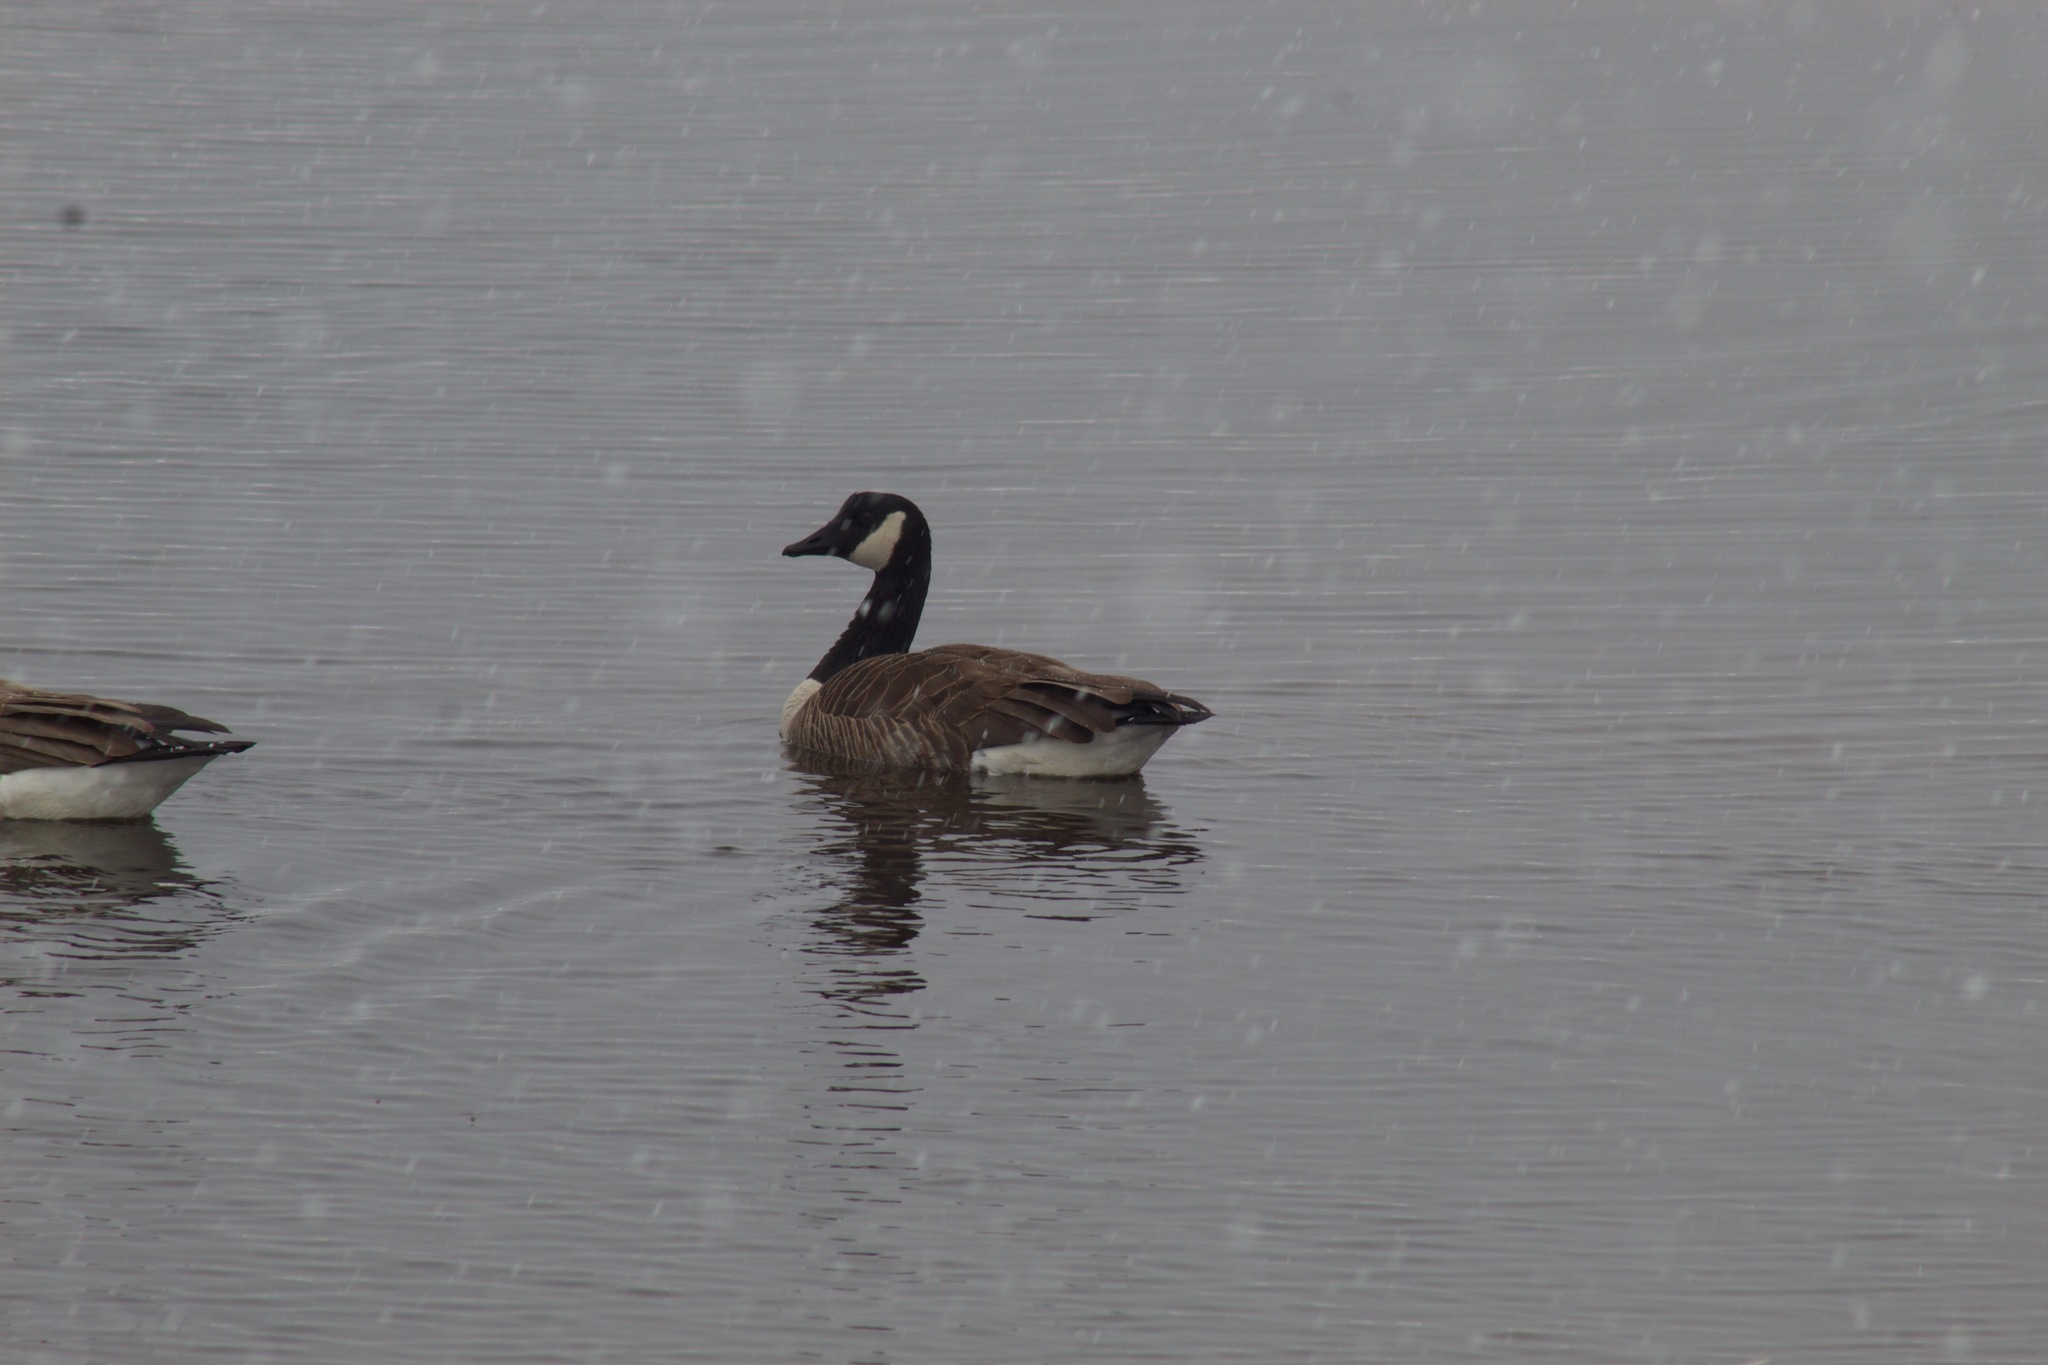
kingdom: Animalia
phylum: Chordata
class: Aves
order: Anseriformes
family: Anatidae
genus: Branta
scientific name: Branta canadensis
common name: Canada goose
